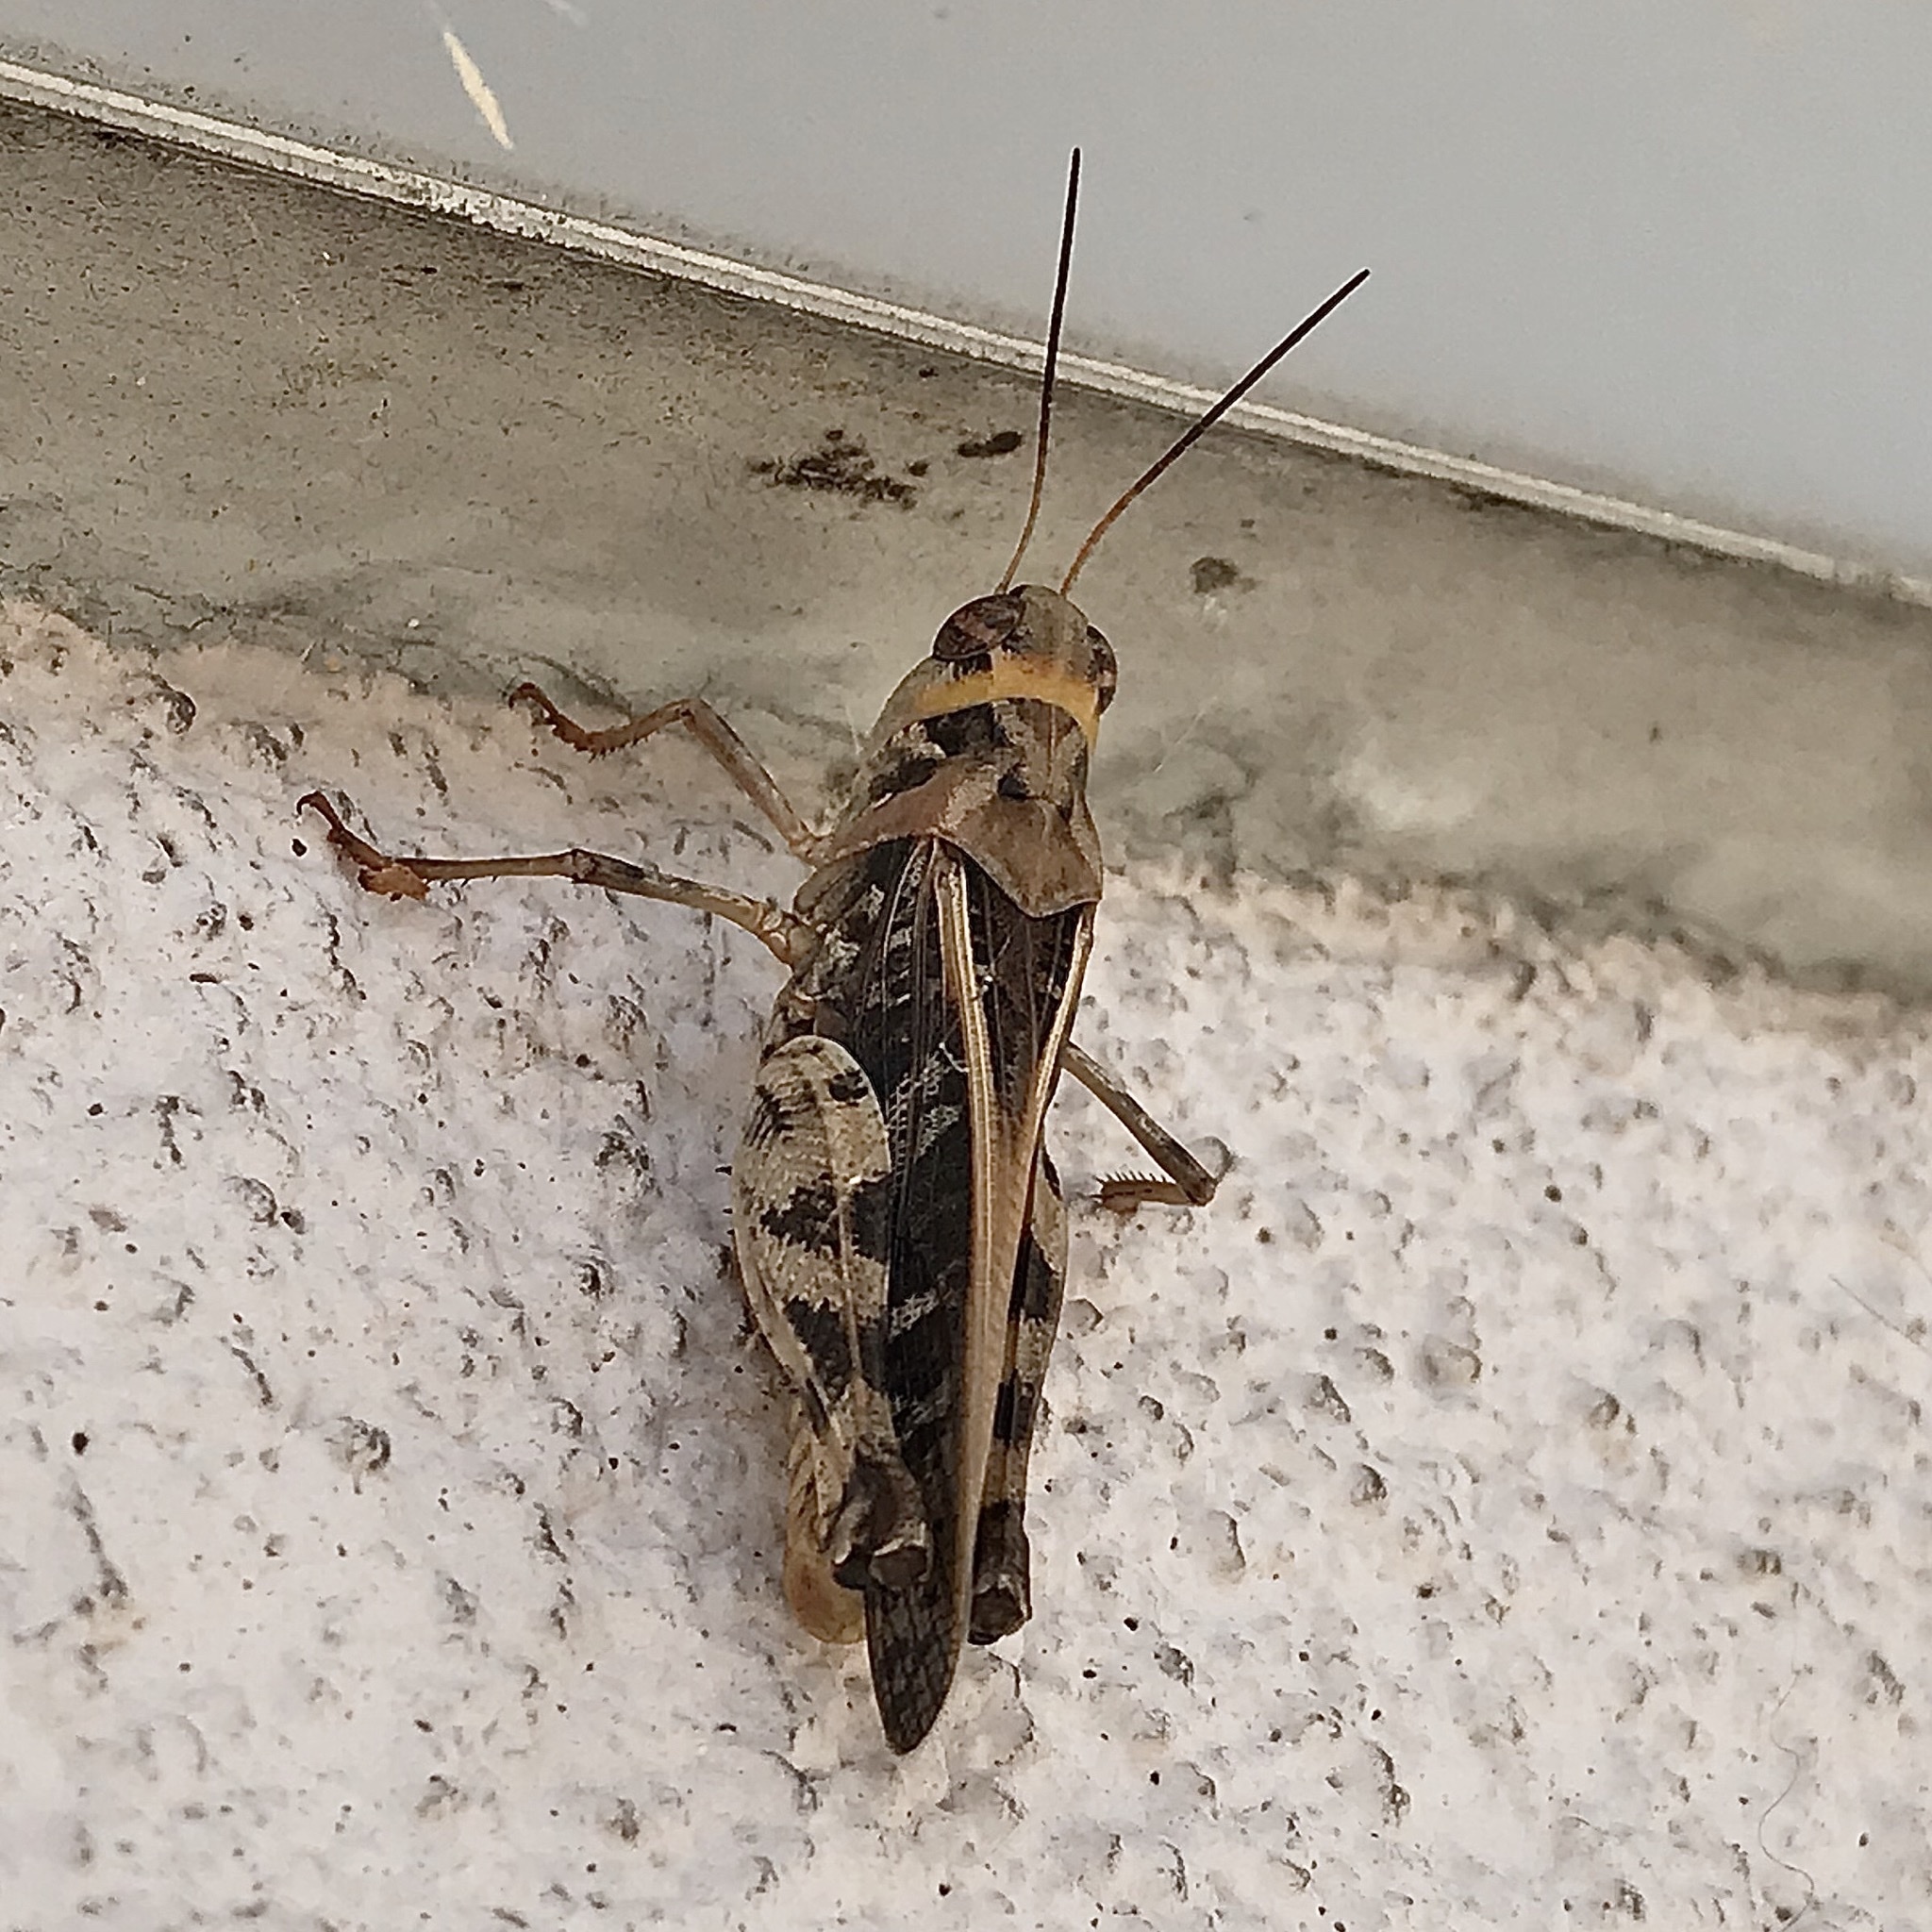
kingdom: Animalia
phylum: Arthropoda
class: Insecta
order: Orthoptera
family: Acrididae
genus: Hippiscus
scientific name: Hippiscus ocelote
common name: Wrinkled grasshopper
